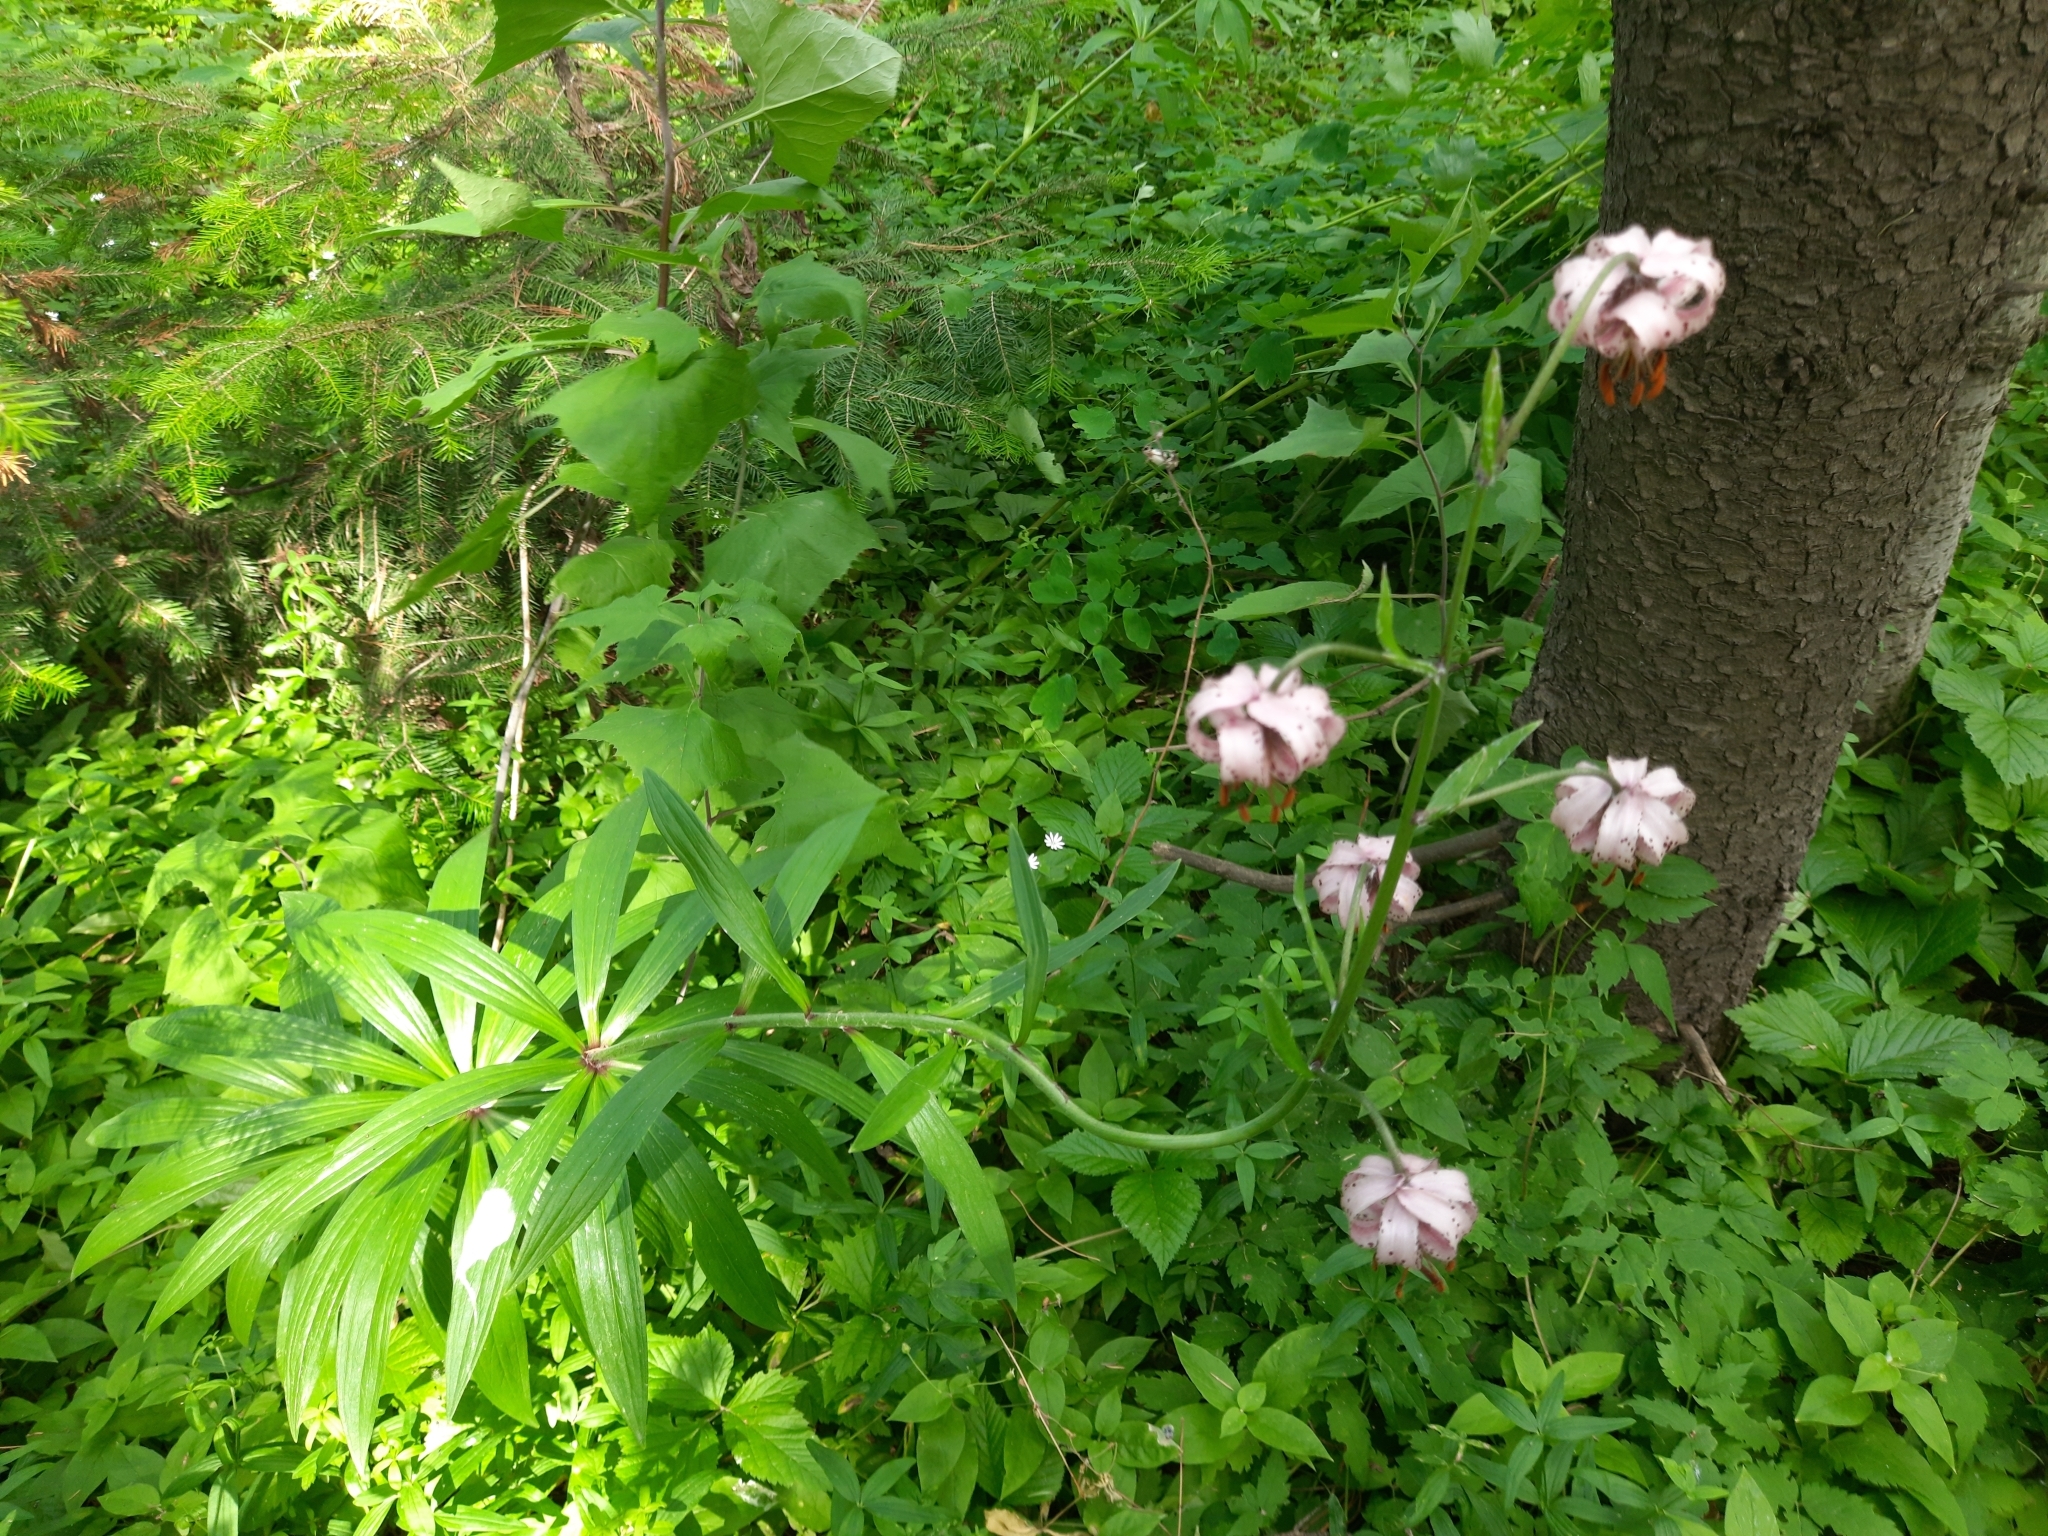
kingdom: Plantae
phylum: Tracheophyta
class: Liliopsida
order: Liliales
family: Liliaceae
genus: Lilium
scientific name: Lilium martagon
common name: Martagon lily
